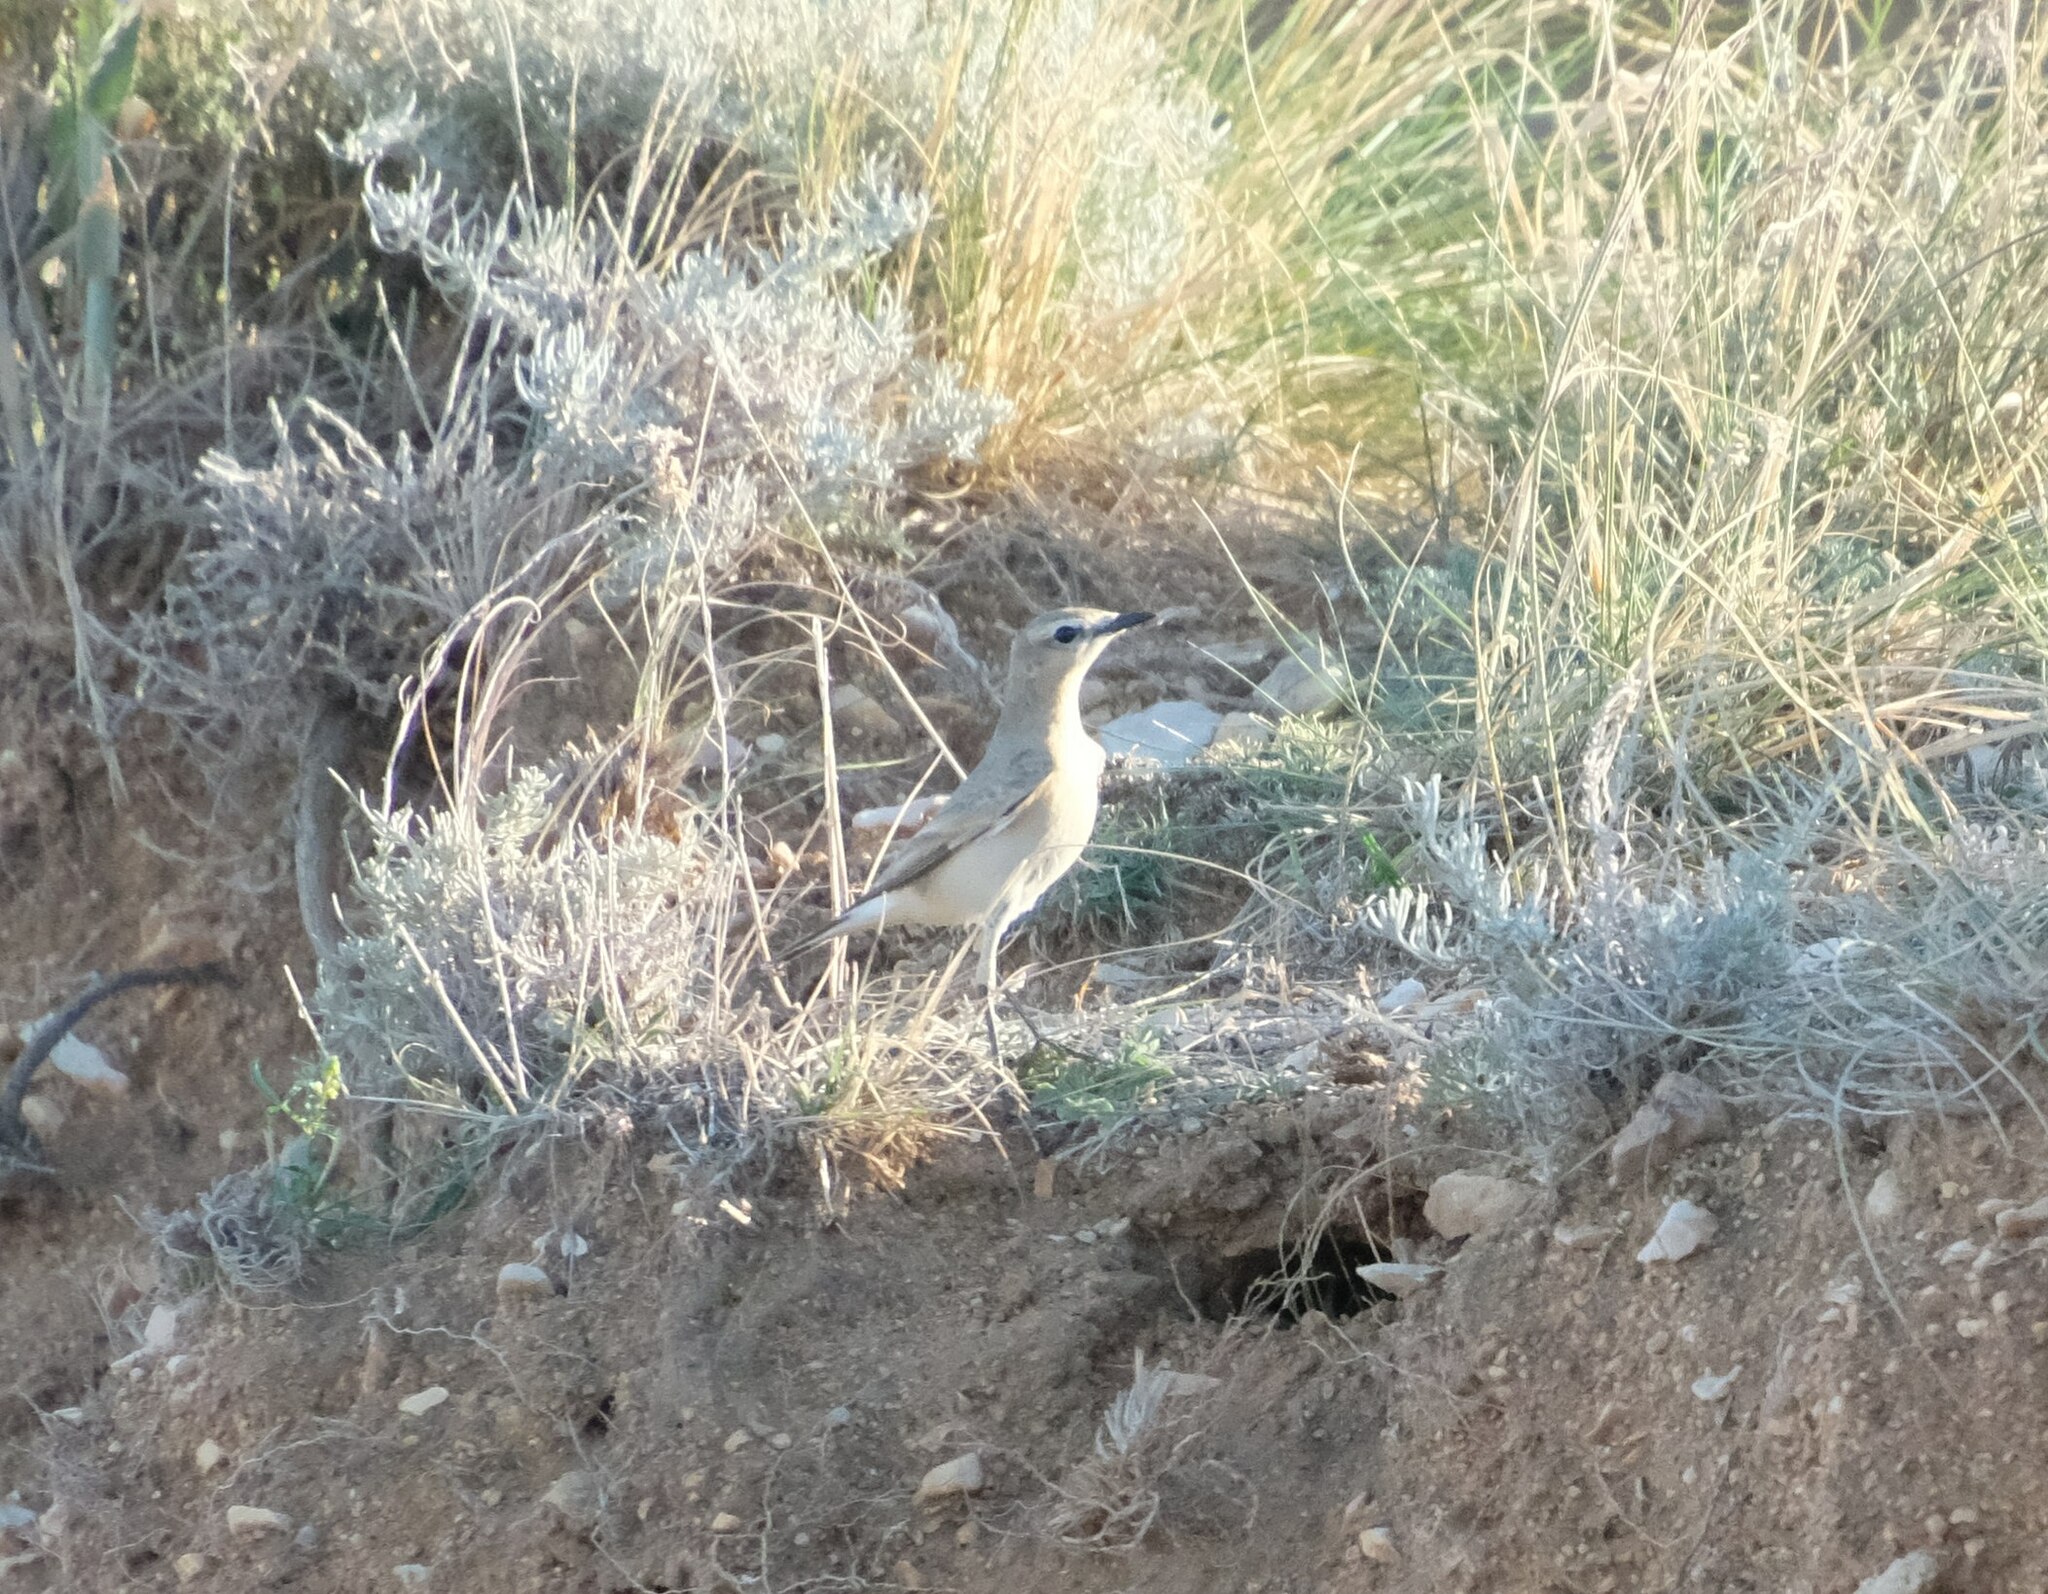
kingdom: Animalia
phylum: Chordata
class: Aves
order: Passeriformes
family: Muscicapidae
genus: Oenanthe
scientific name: Oenanthe isabellina
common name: Isabelline wheatear
